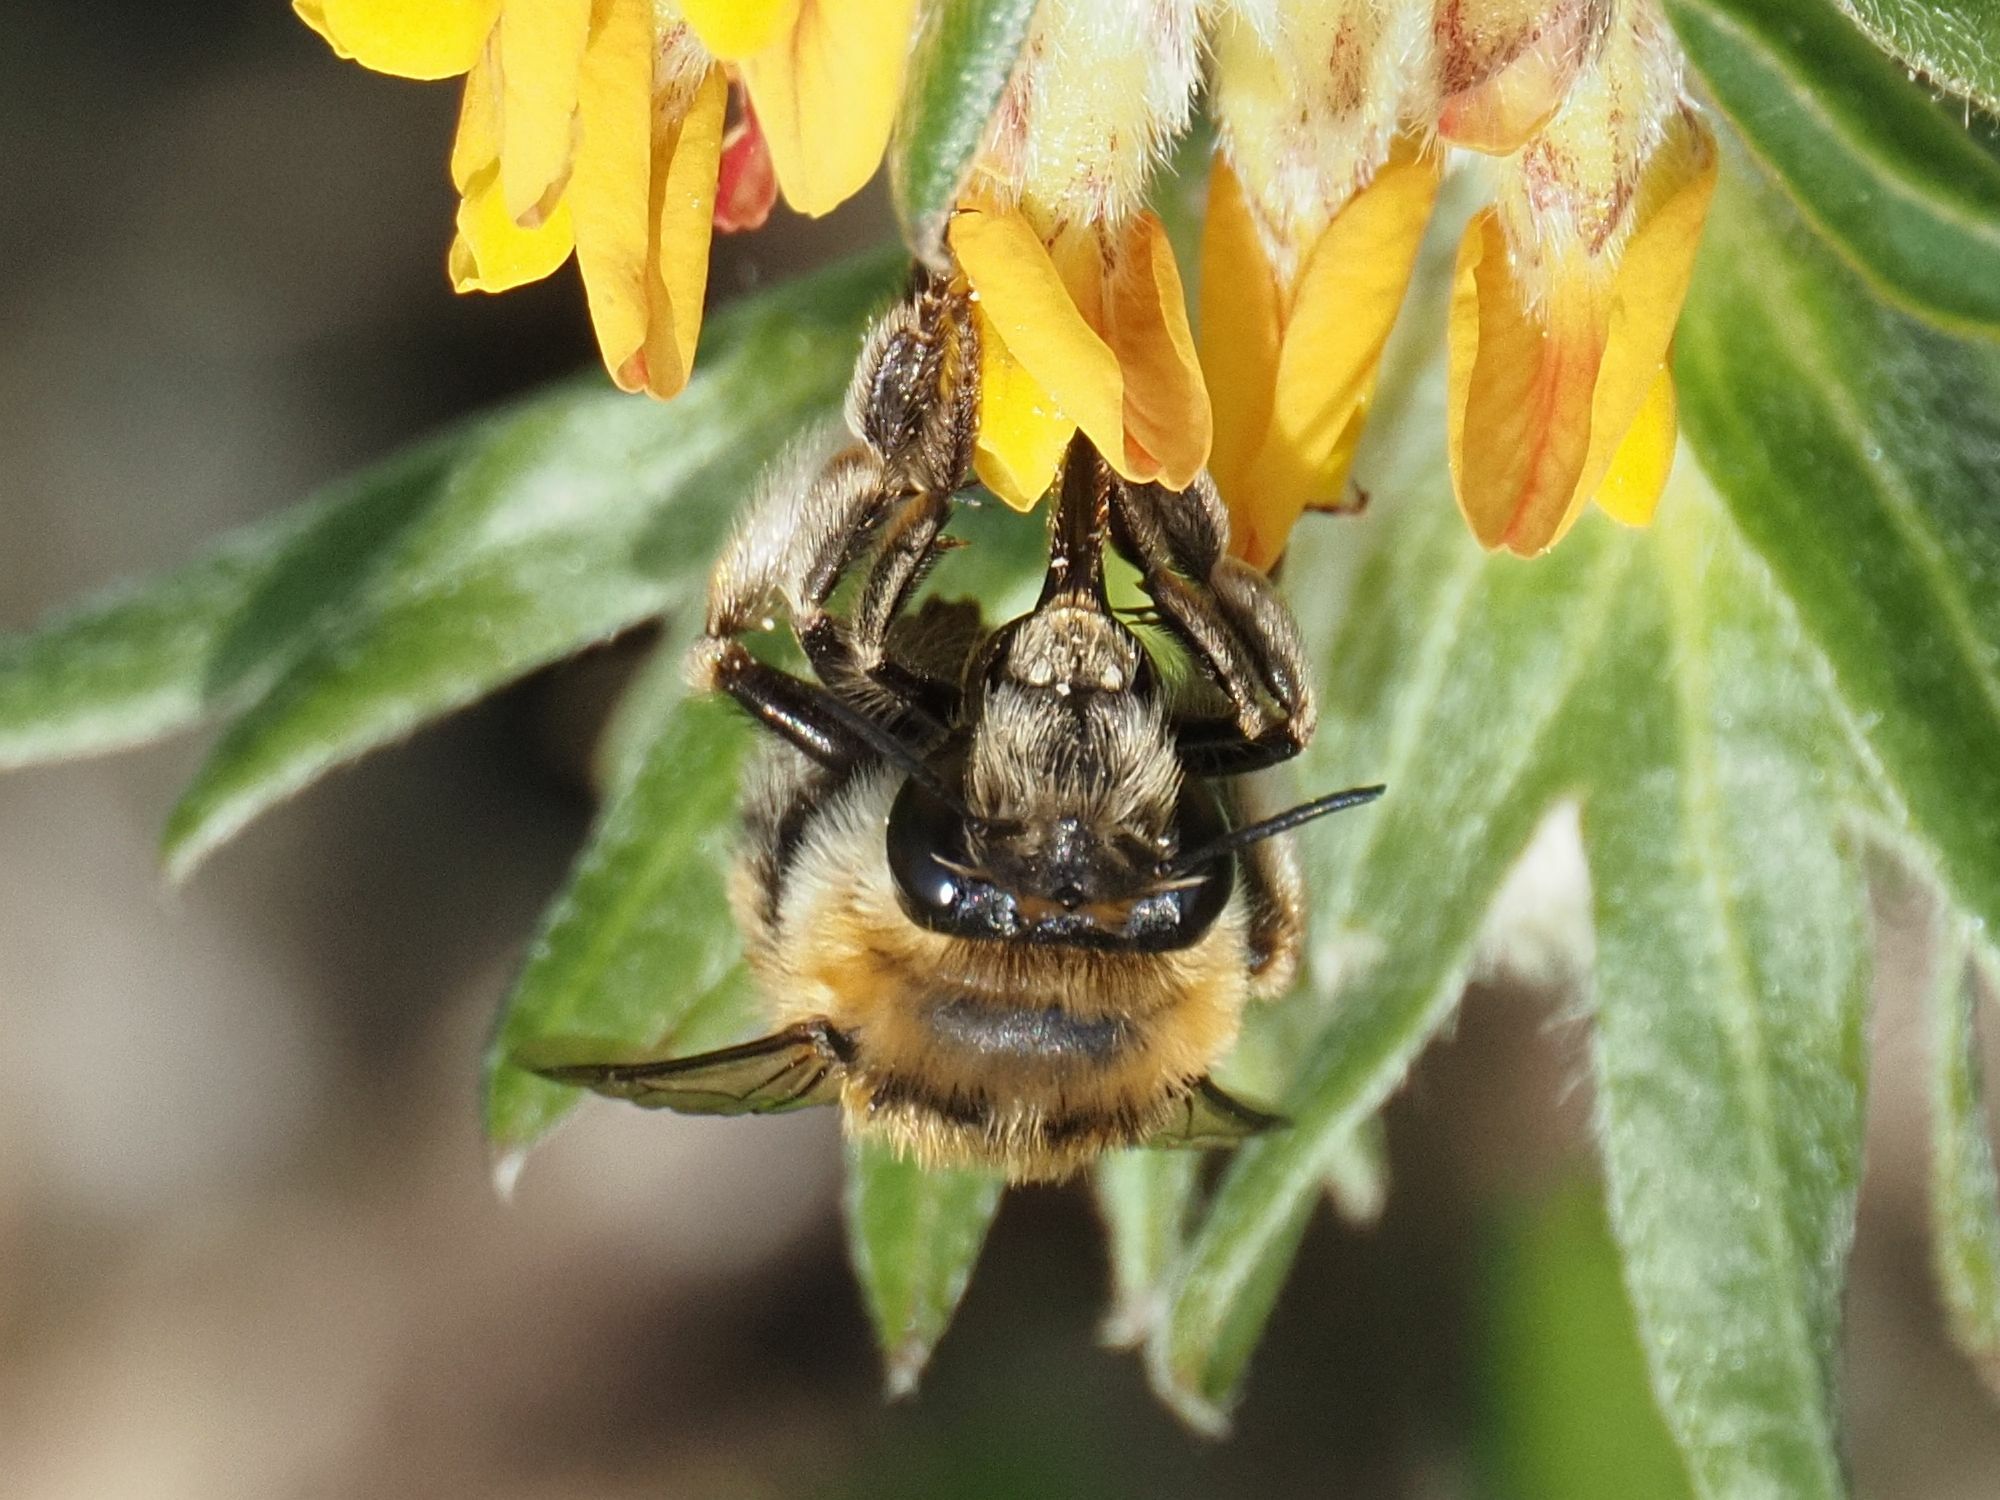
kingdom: Animalia
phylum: Arthropoda
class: Insecta
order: Hymenoptera
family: Apidae
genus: Anthophora
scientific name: Anthophora aestivalis
